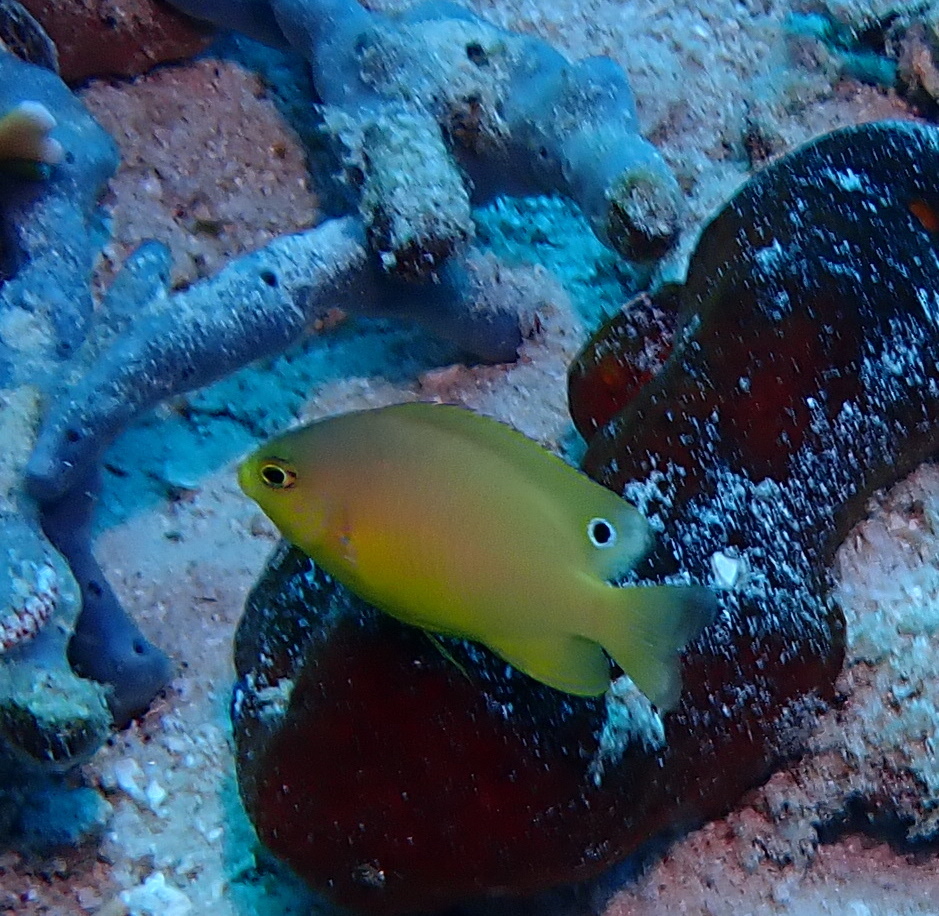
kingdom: Animalia
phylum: Chordata
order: Perciformes
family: Pomacentridae
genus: Pomacentrus
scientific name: Pomacentrus amboinensis
